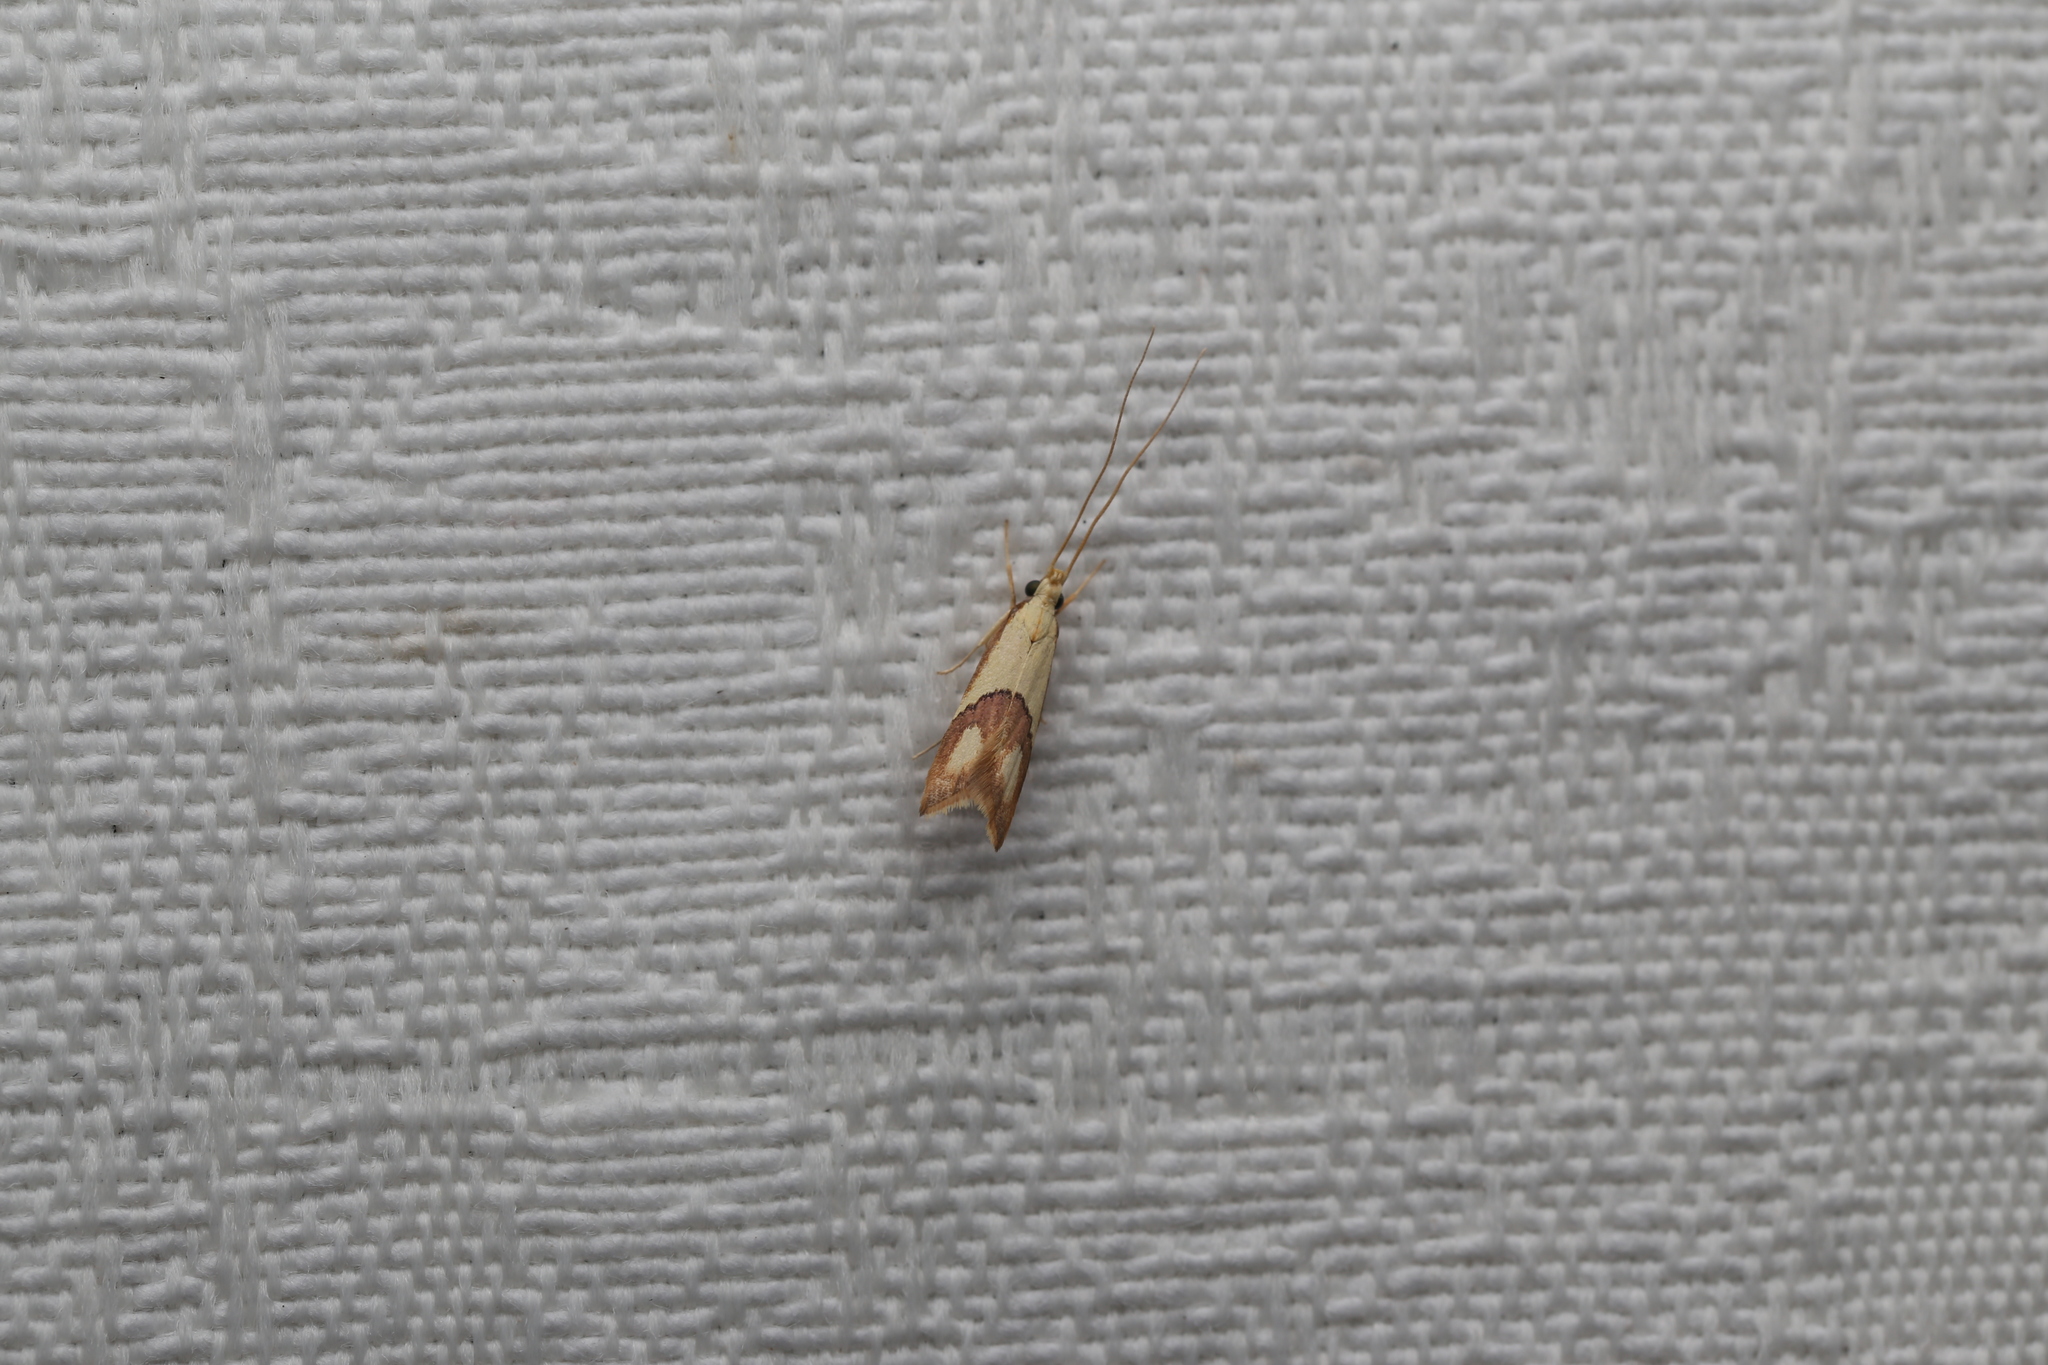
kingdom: Animalia
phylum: Arthropoda
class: Insecta
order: Lepidoptera
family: Lecithoceridae
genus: Crocanthes
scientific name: Crocanthes glycina
